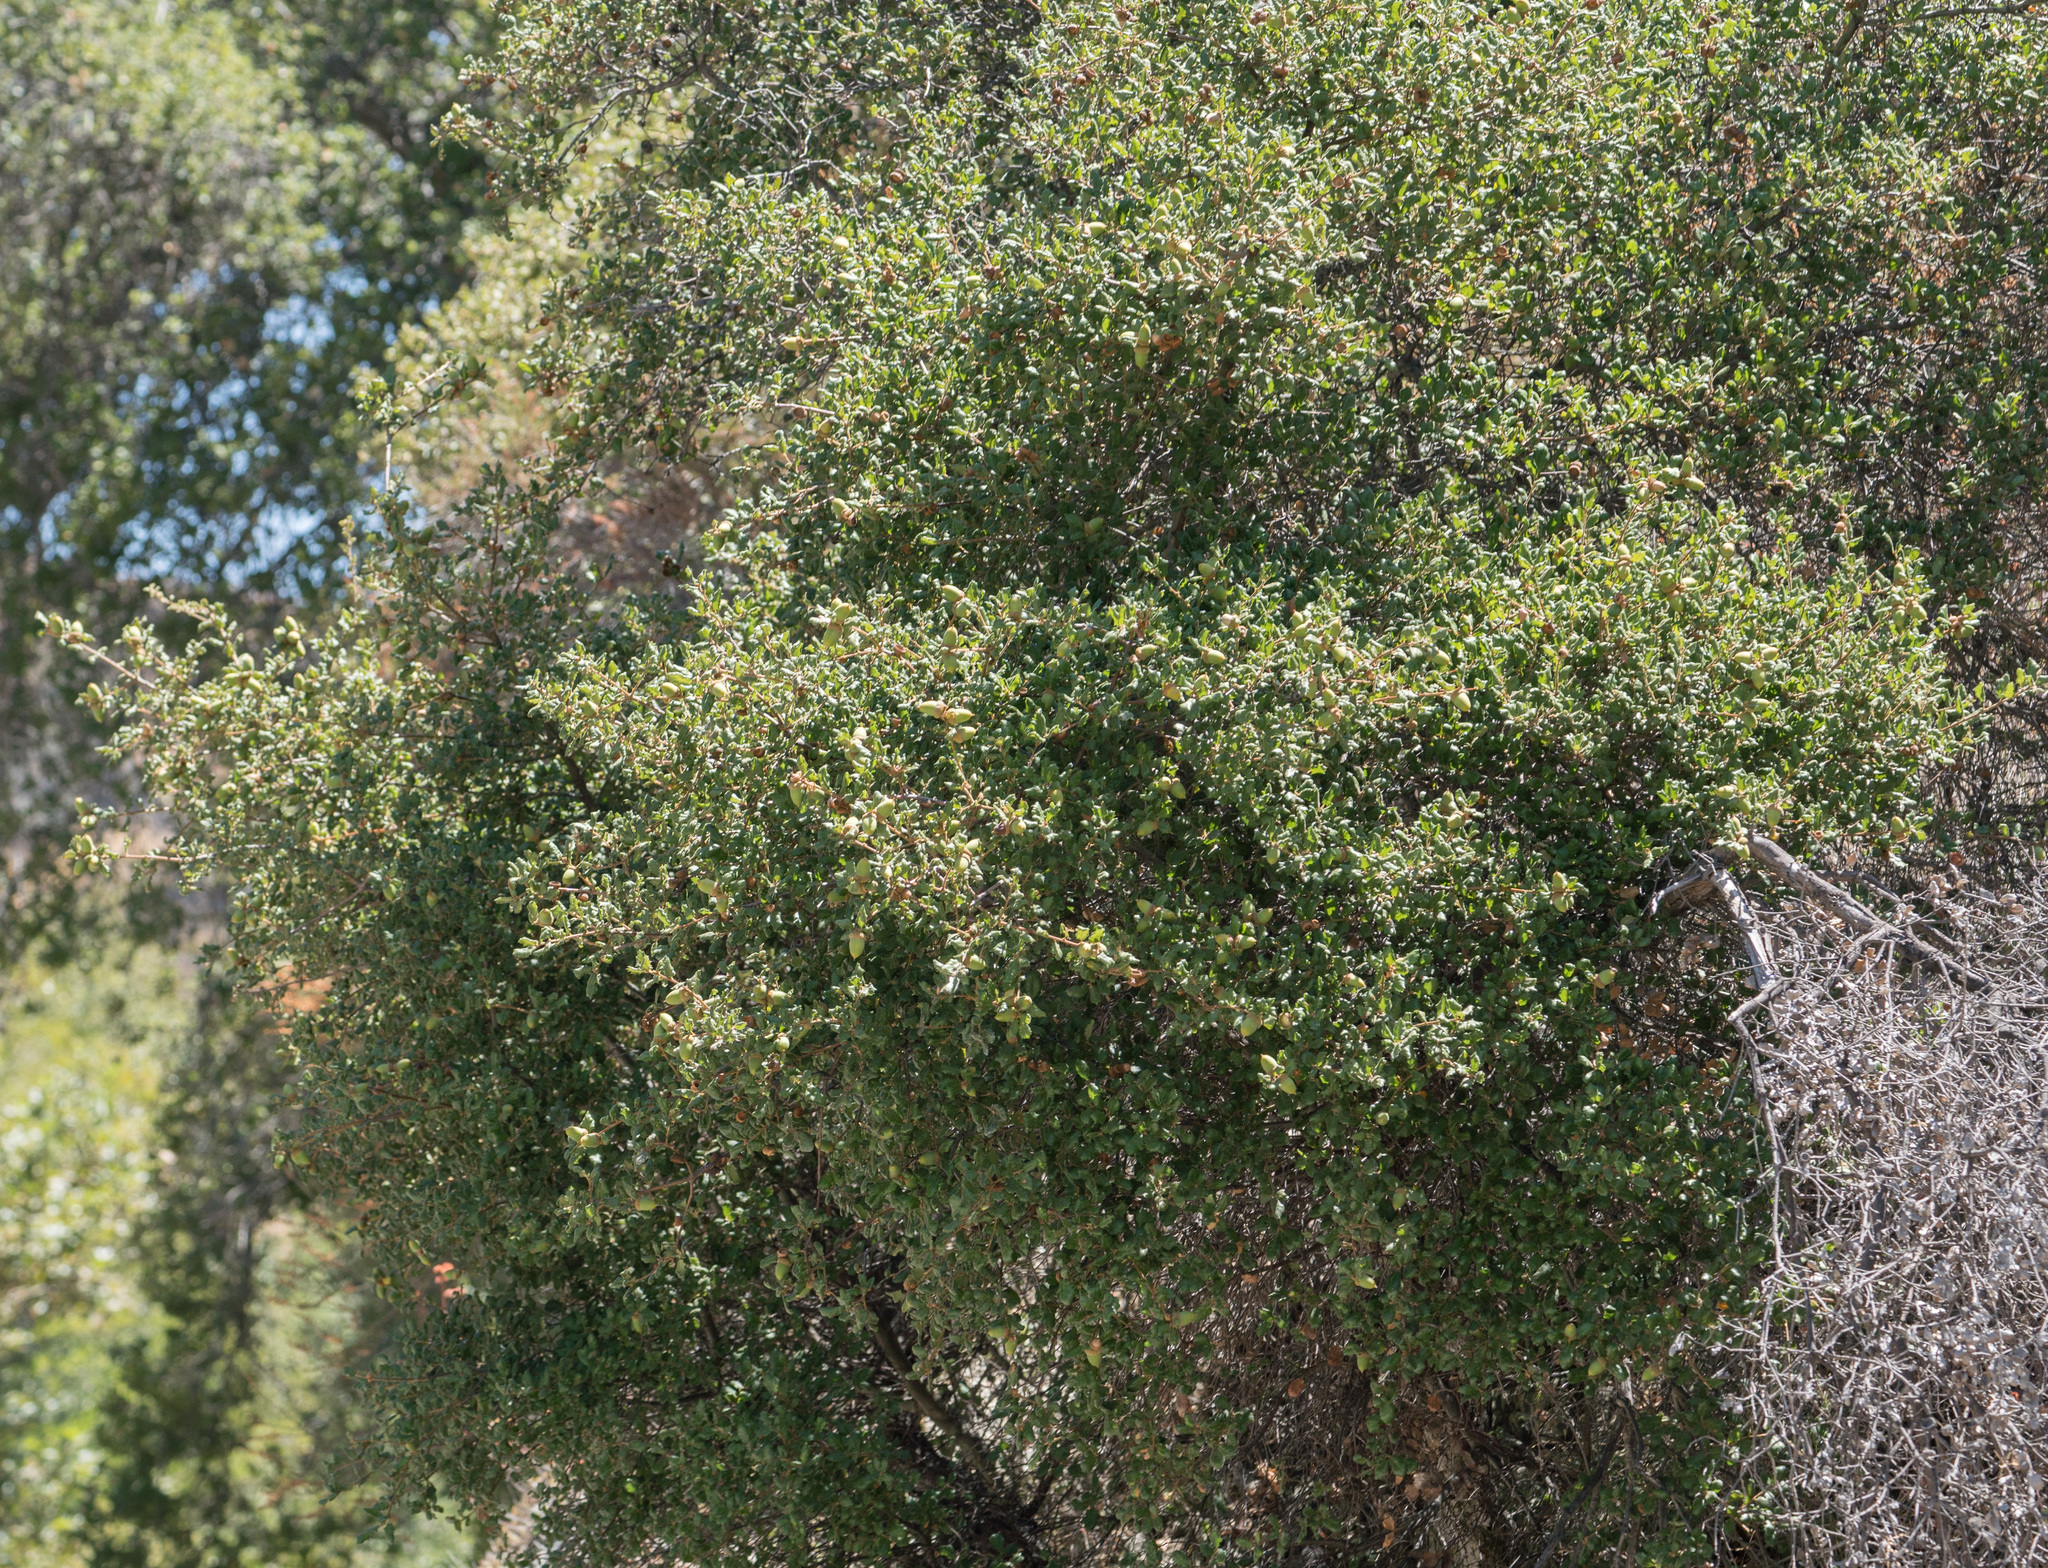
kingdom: Plantae
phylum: Tracheophyta
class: Magnoliopsida
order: Fagales
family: Fagaceae
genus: Quercus
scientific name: Quercus durata
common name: Leather oak
